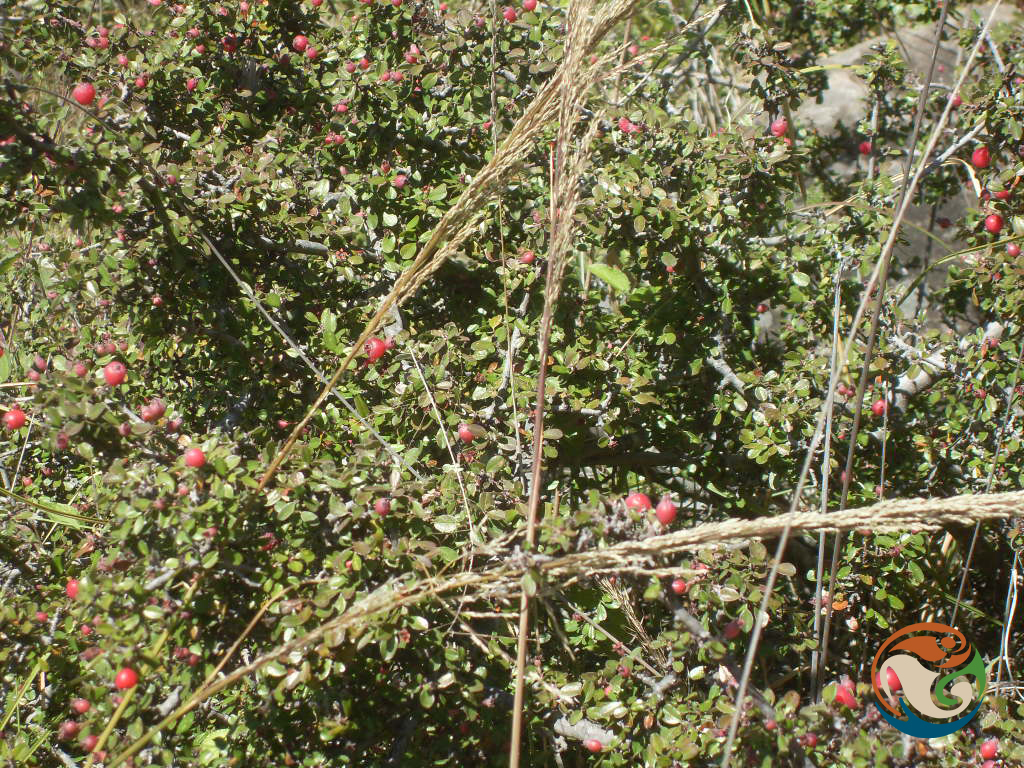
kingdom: Plantae
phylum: Tracheophyta
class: Magnoliopsida
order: Rosales
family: Rosaceae
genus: Malacomeles
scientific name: Malacomeles denticulata
